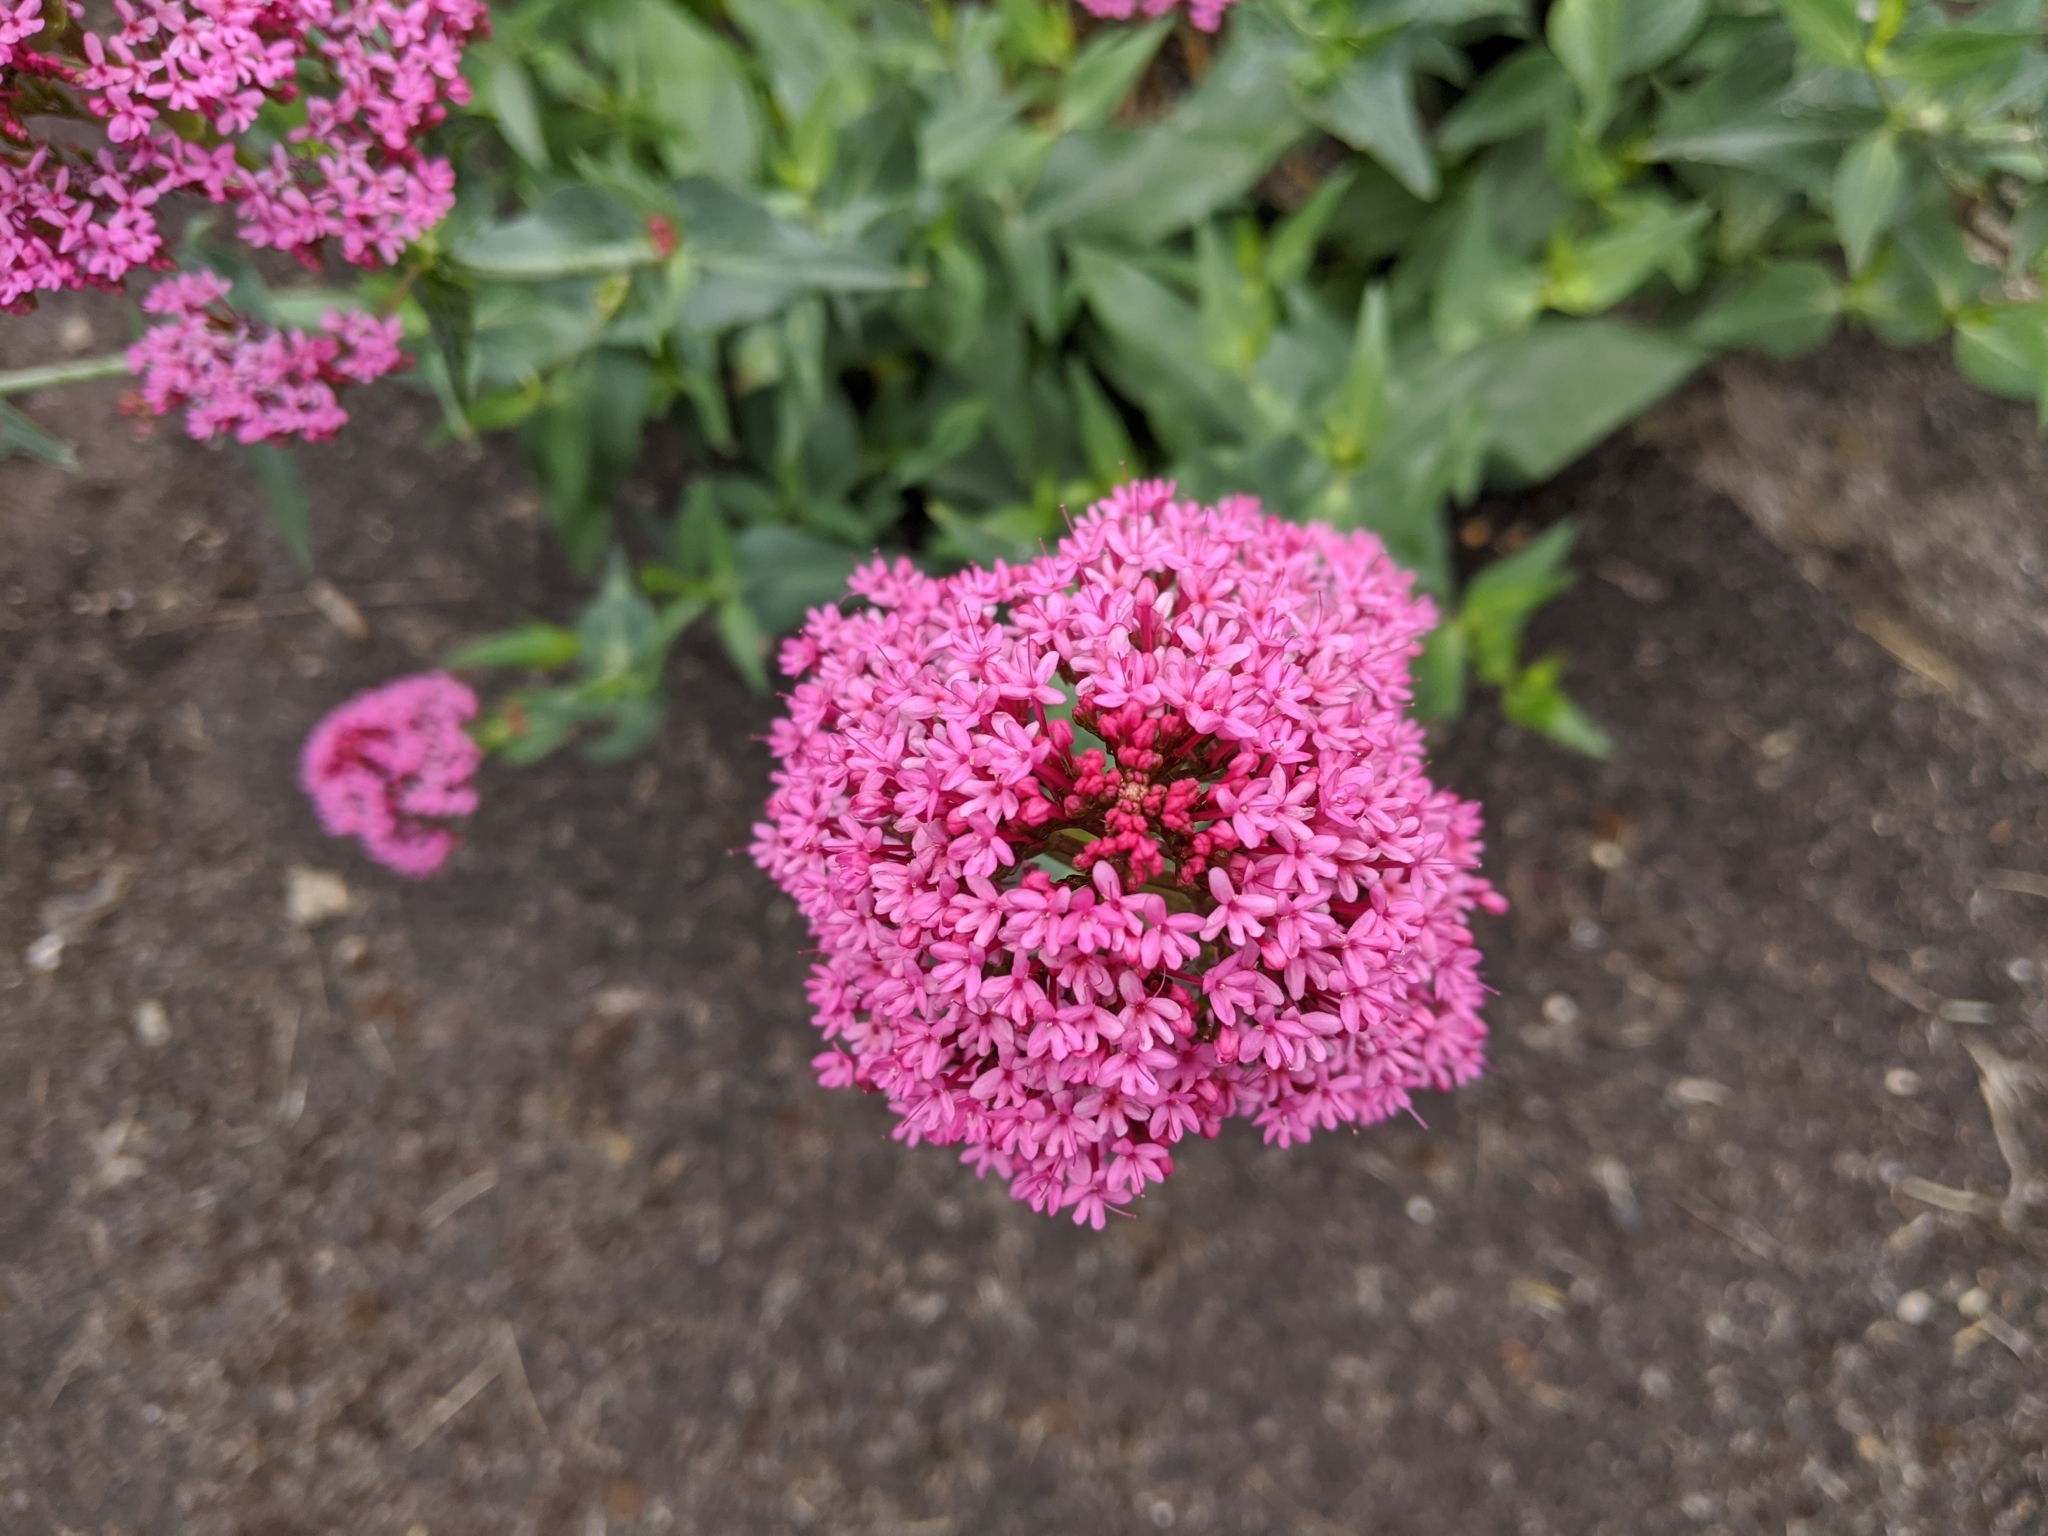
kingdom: Plantae
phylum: Tracheophyta
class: Magnoliopsida
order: Dipsacales
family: Caprifoliaceae
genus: Centranthus
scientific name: Centranthus ruber
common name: Red valerian
